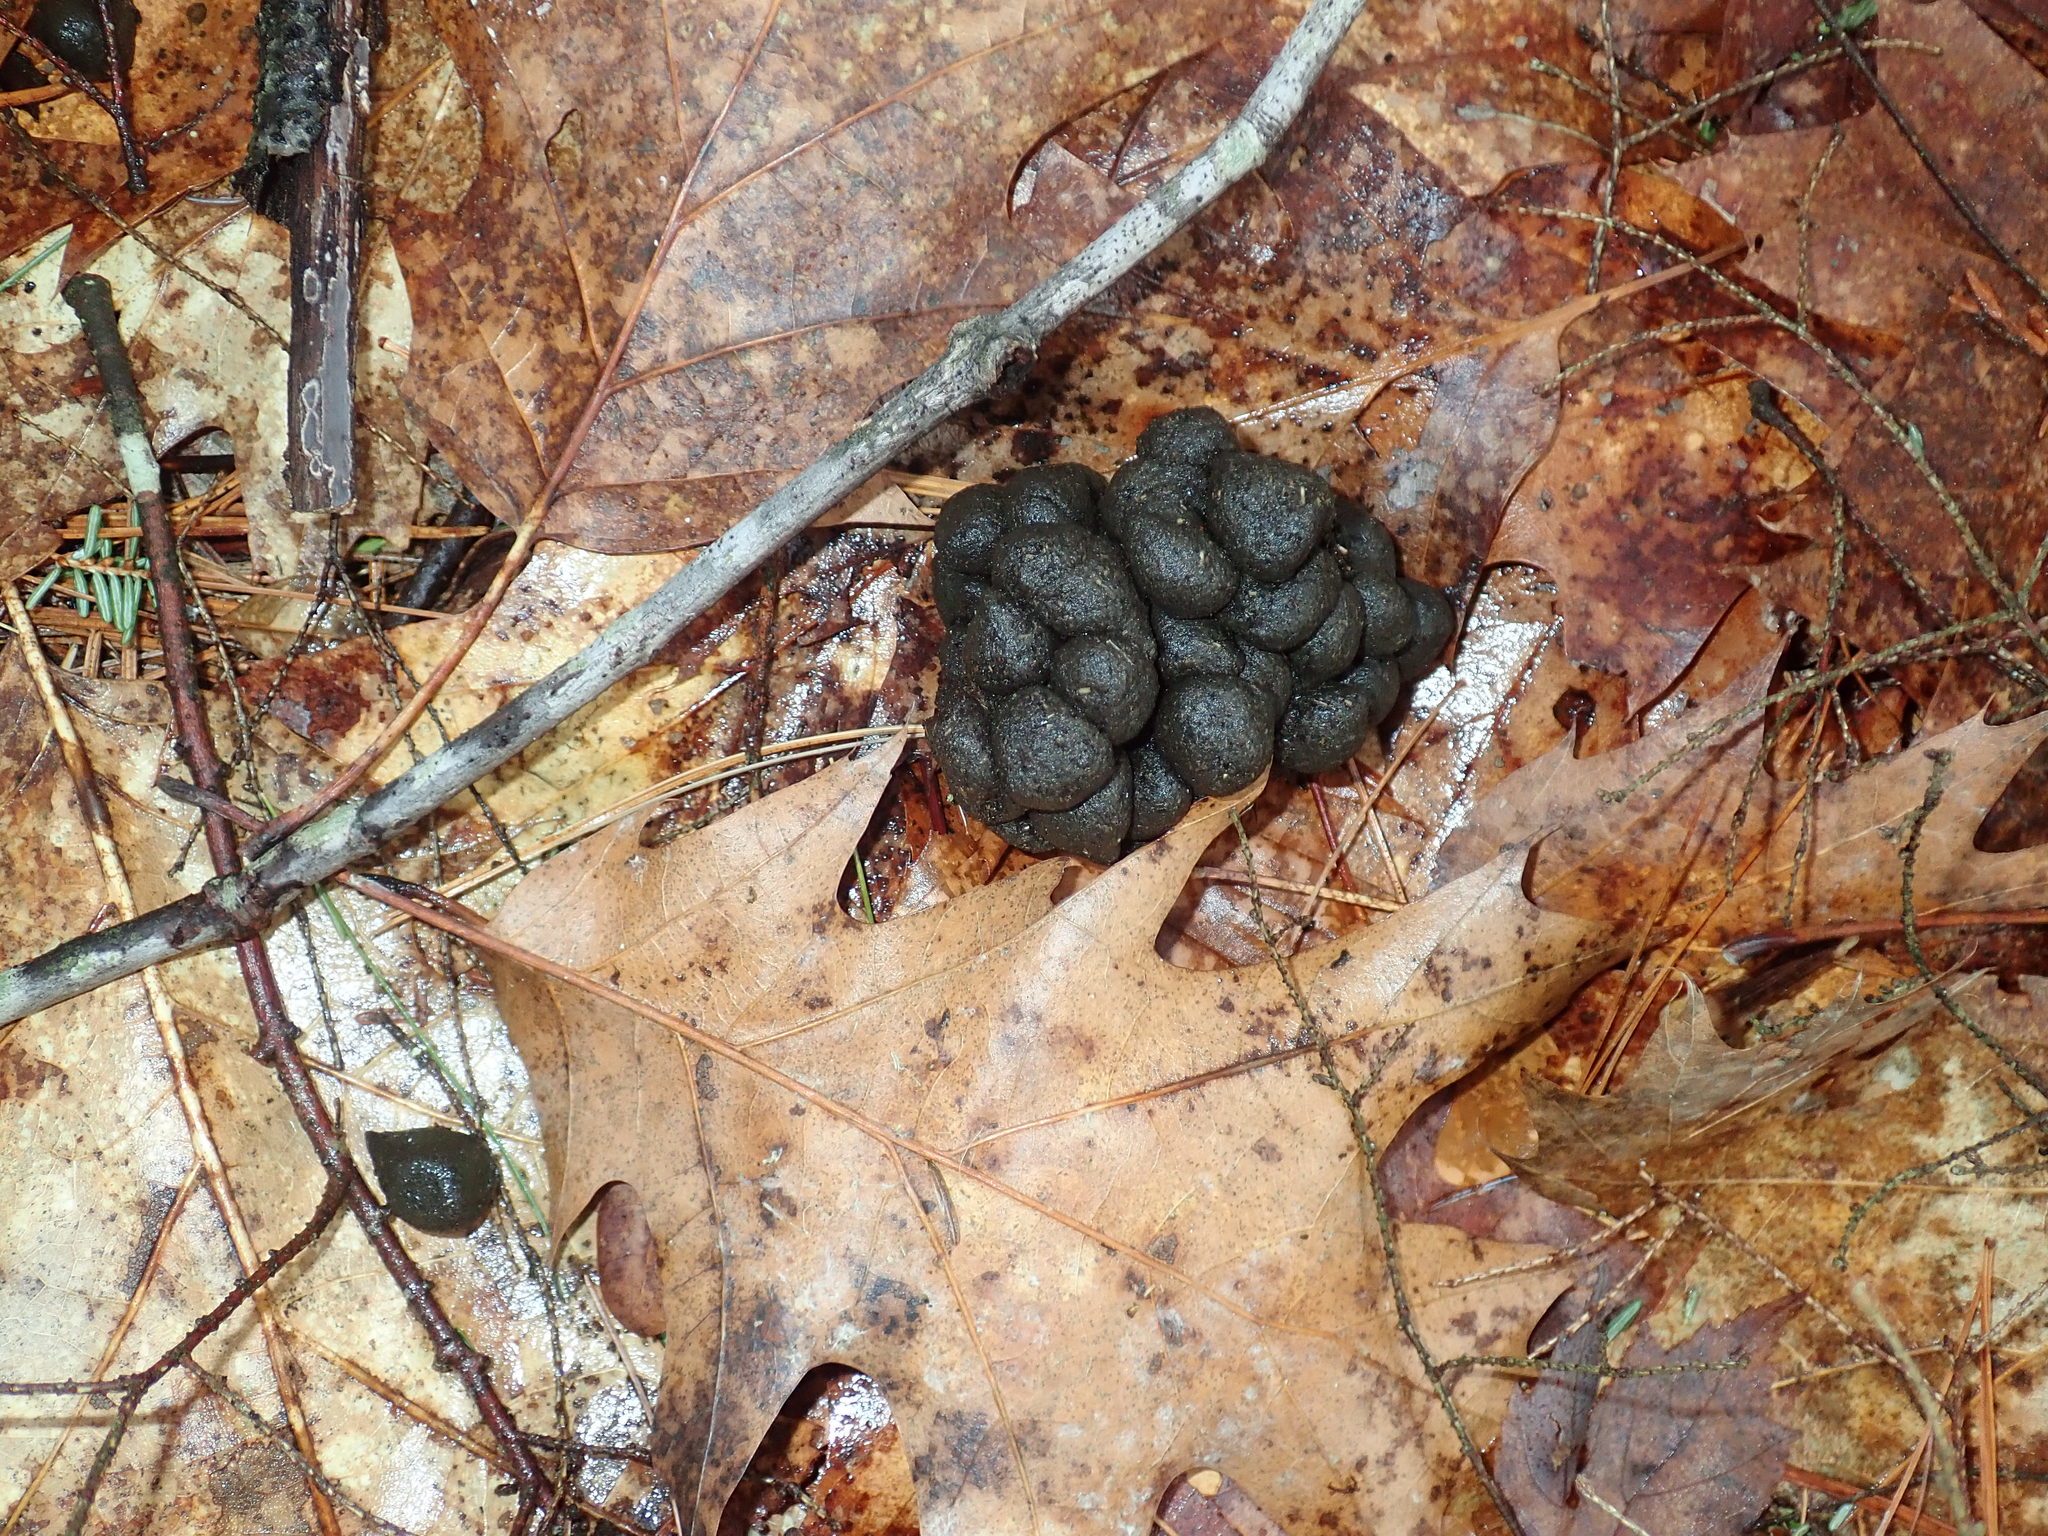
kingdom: Animalia
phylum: Chordata
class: Mammalia
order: Artiodactyla
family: Cervidae
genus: Alces
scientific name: Alces alces
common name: Moose
